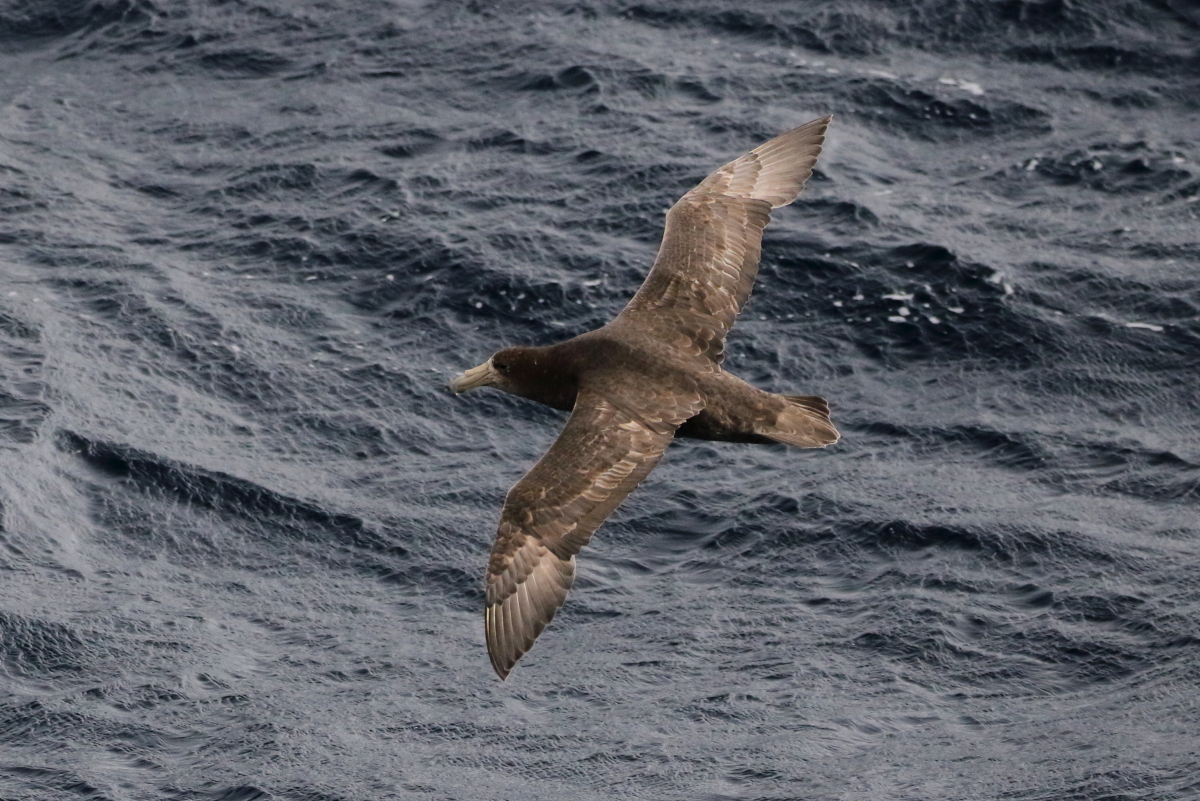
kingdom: Animalia
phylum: Chordata
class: Aves
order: Procellariiformes
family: Procellariidae
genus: Macronectes
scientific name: Macronectes giganteus
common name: Southern giant petrel
